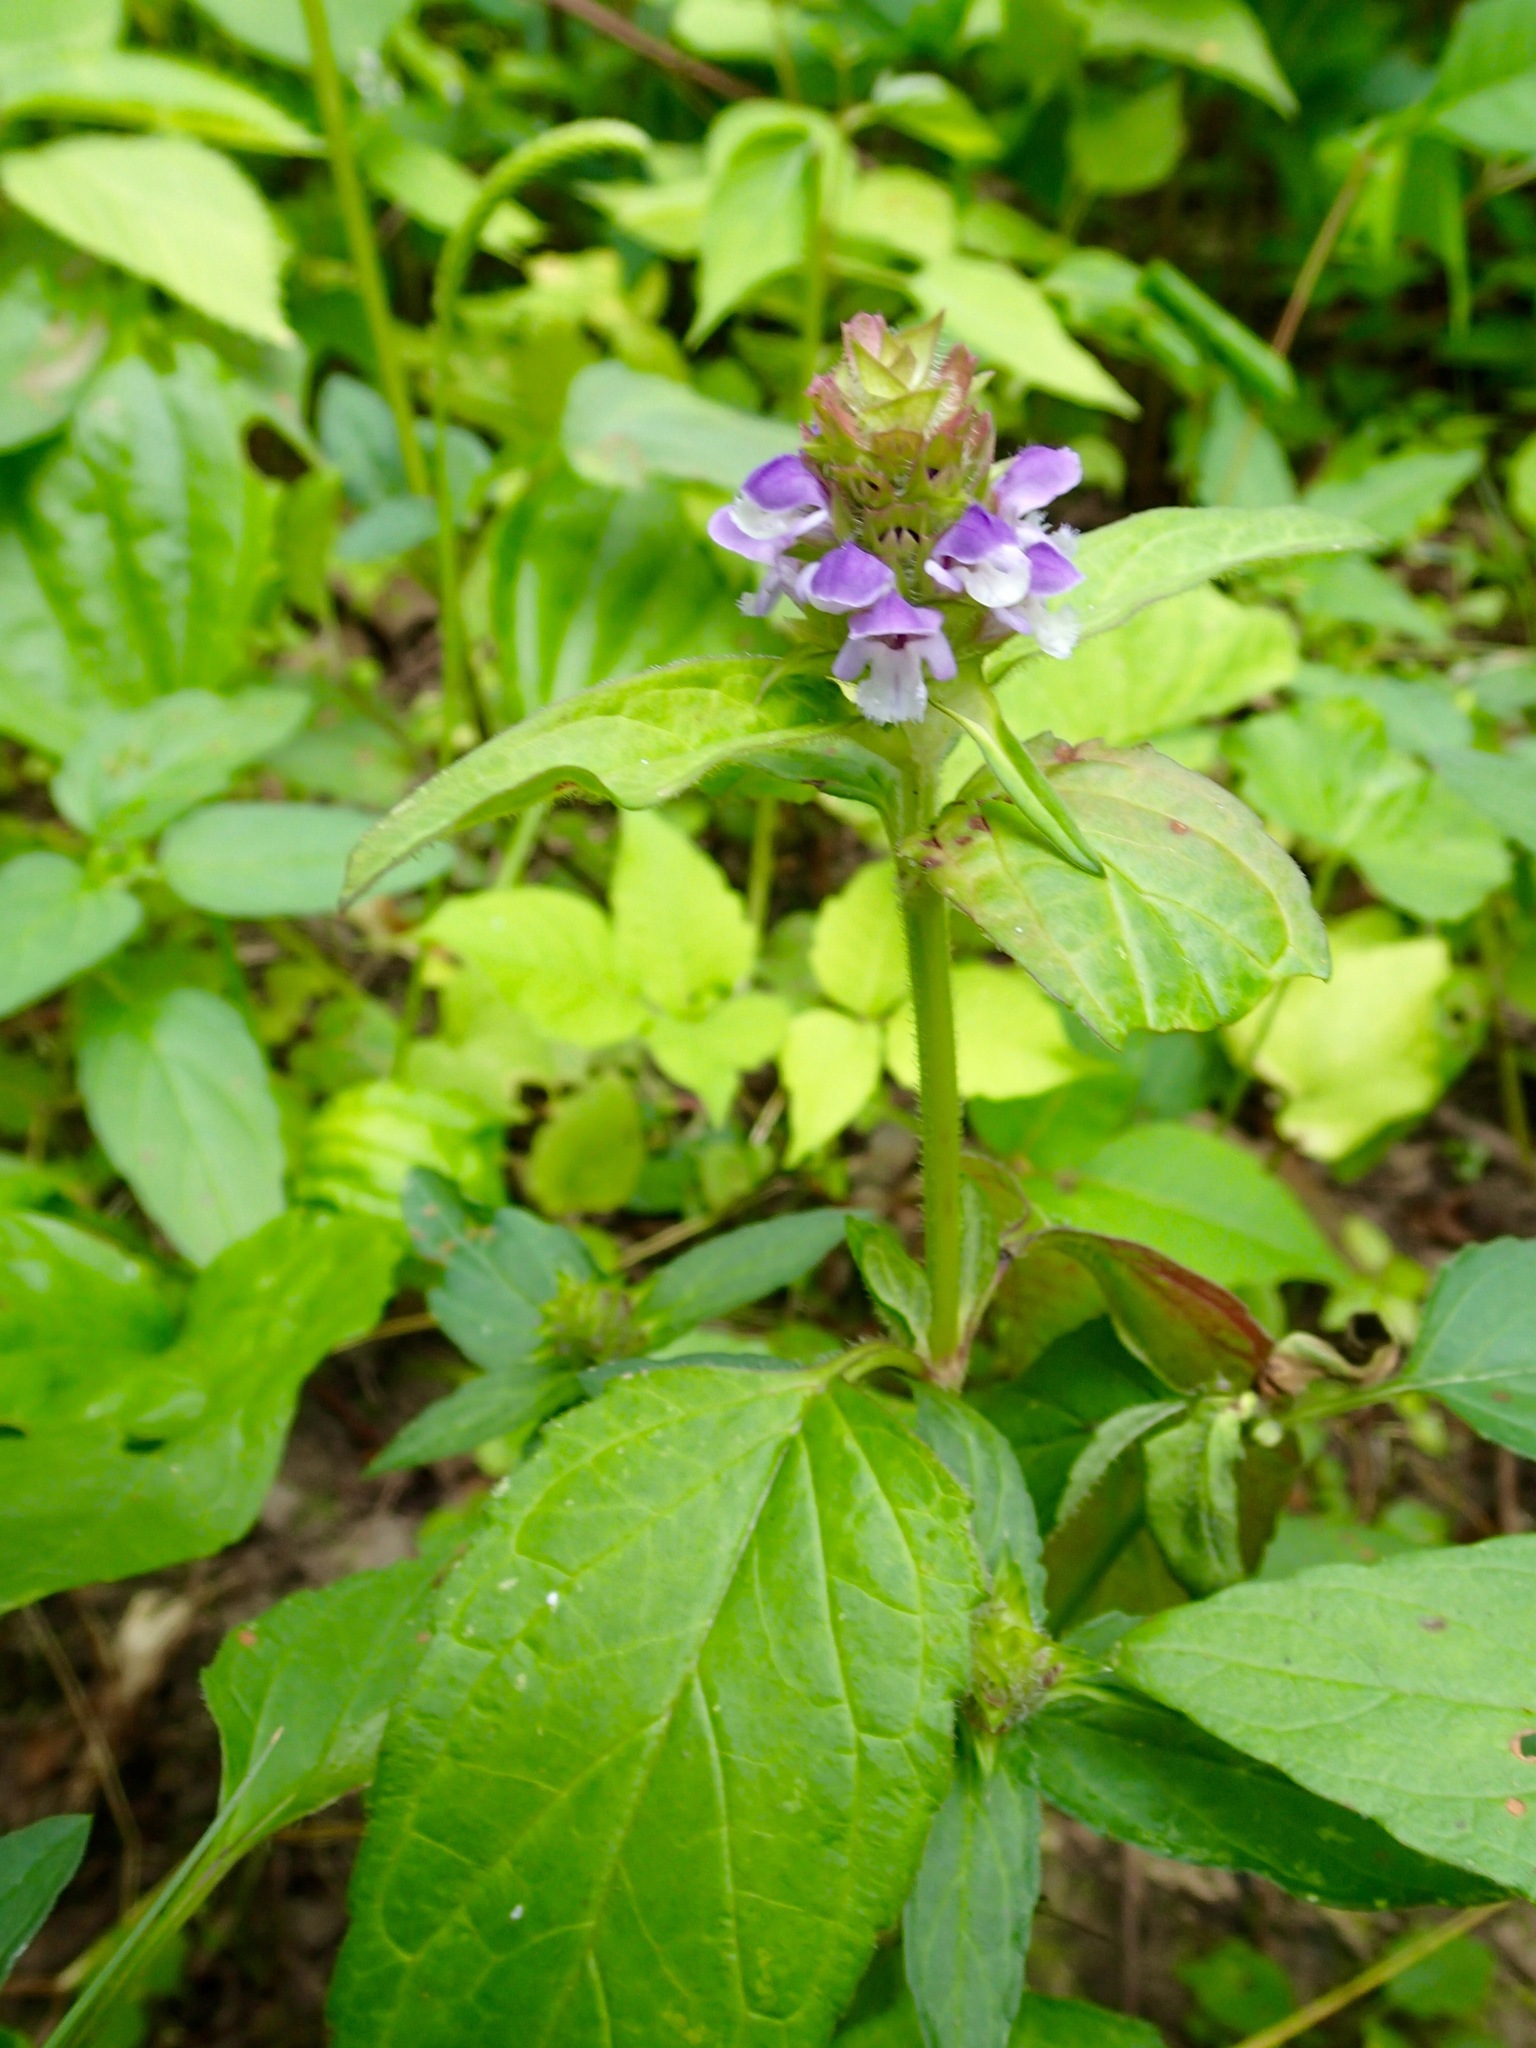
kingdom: Plantae
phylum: Tracheophyta
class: Magnoliopsida
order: Lamiales
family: Lamiaceae
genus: Prunella
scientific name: Prunella vulgaris
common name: Heal-all
